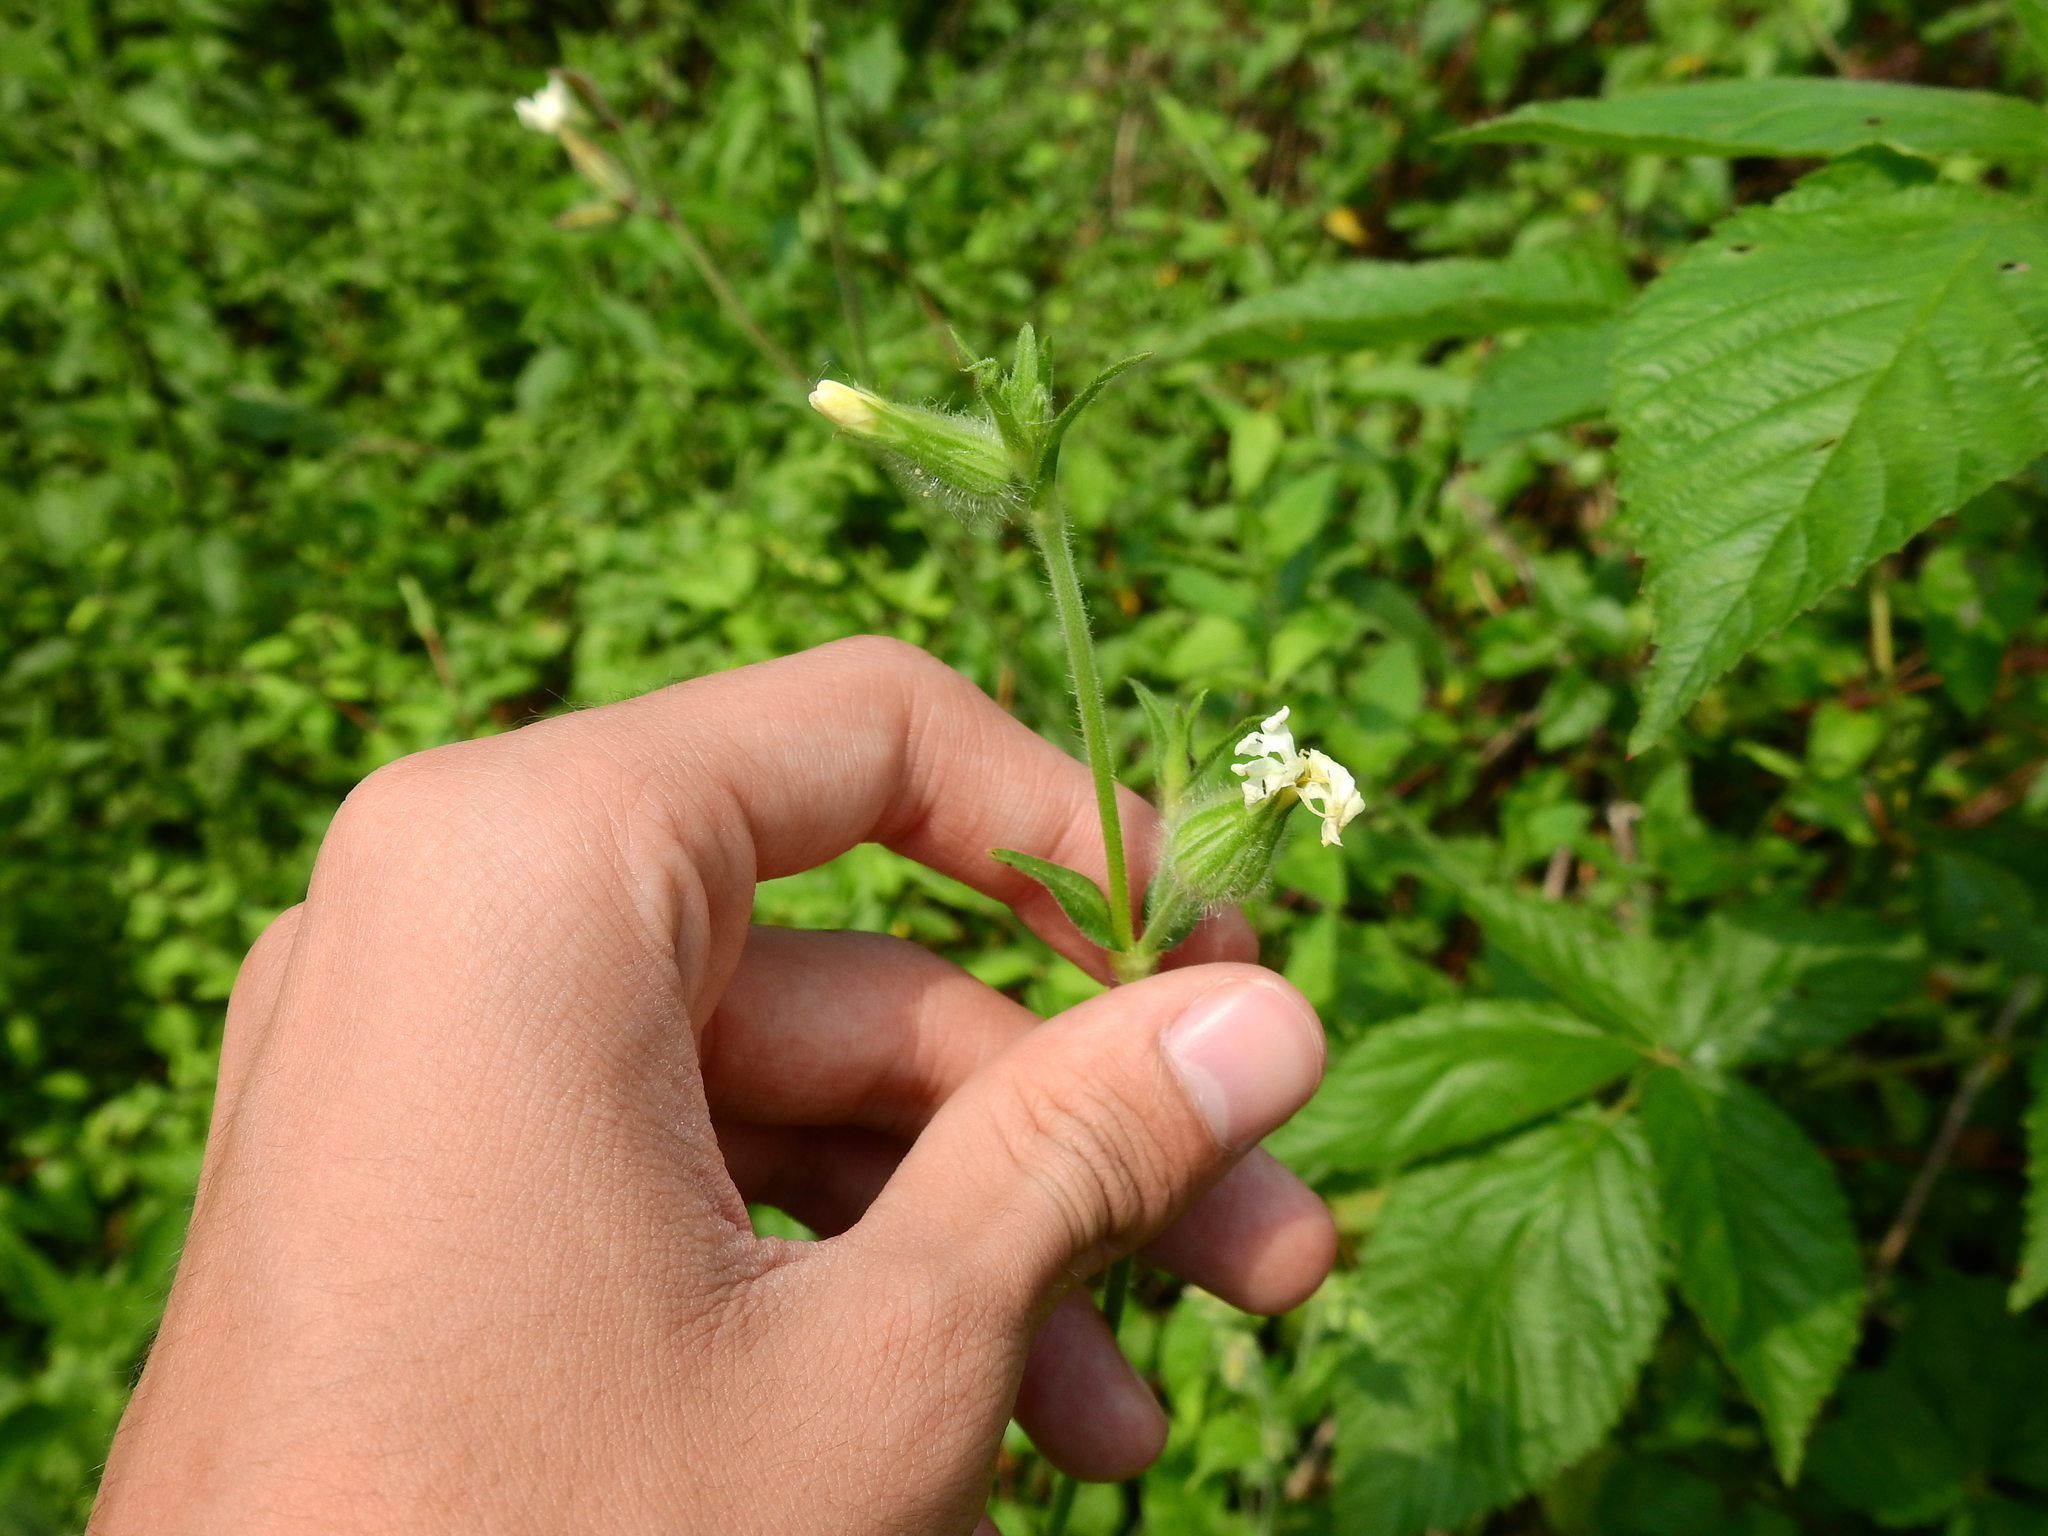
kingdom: Plantae
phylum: Tracheophyta
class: Magnoliopsida
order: Caryophyllales
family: Caryophyllaceae
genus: Silene
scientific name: Silene latifolia
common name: White campion
